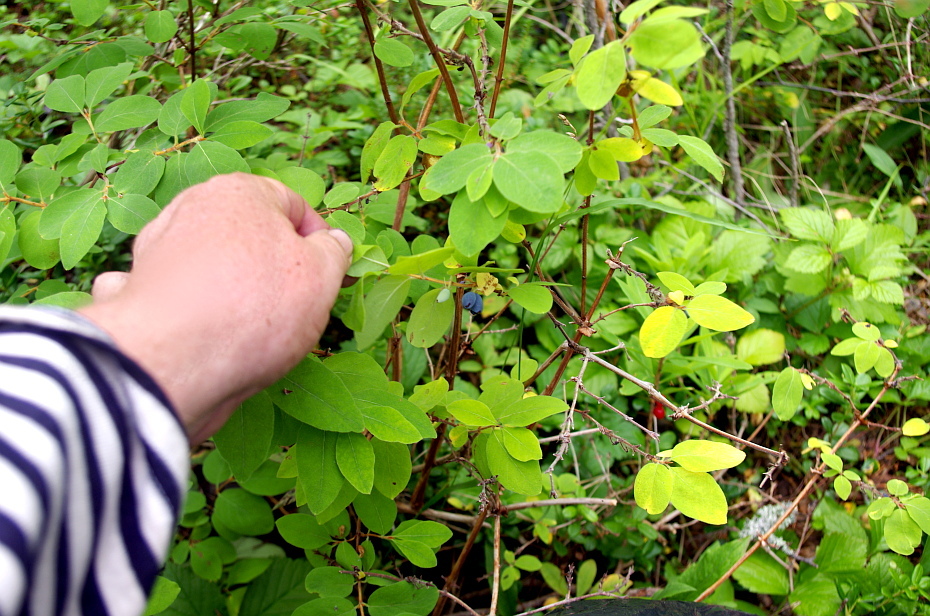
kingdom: Plantae
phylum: Tracheophyta
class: Magnoliopsida
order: Dipsacales
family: Caprifoliaceae
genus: Lonicera
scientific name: Lonicera caerulea
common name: Blue honeysuckle
